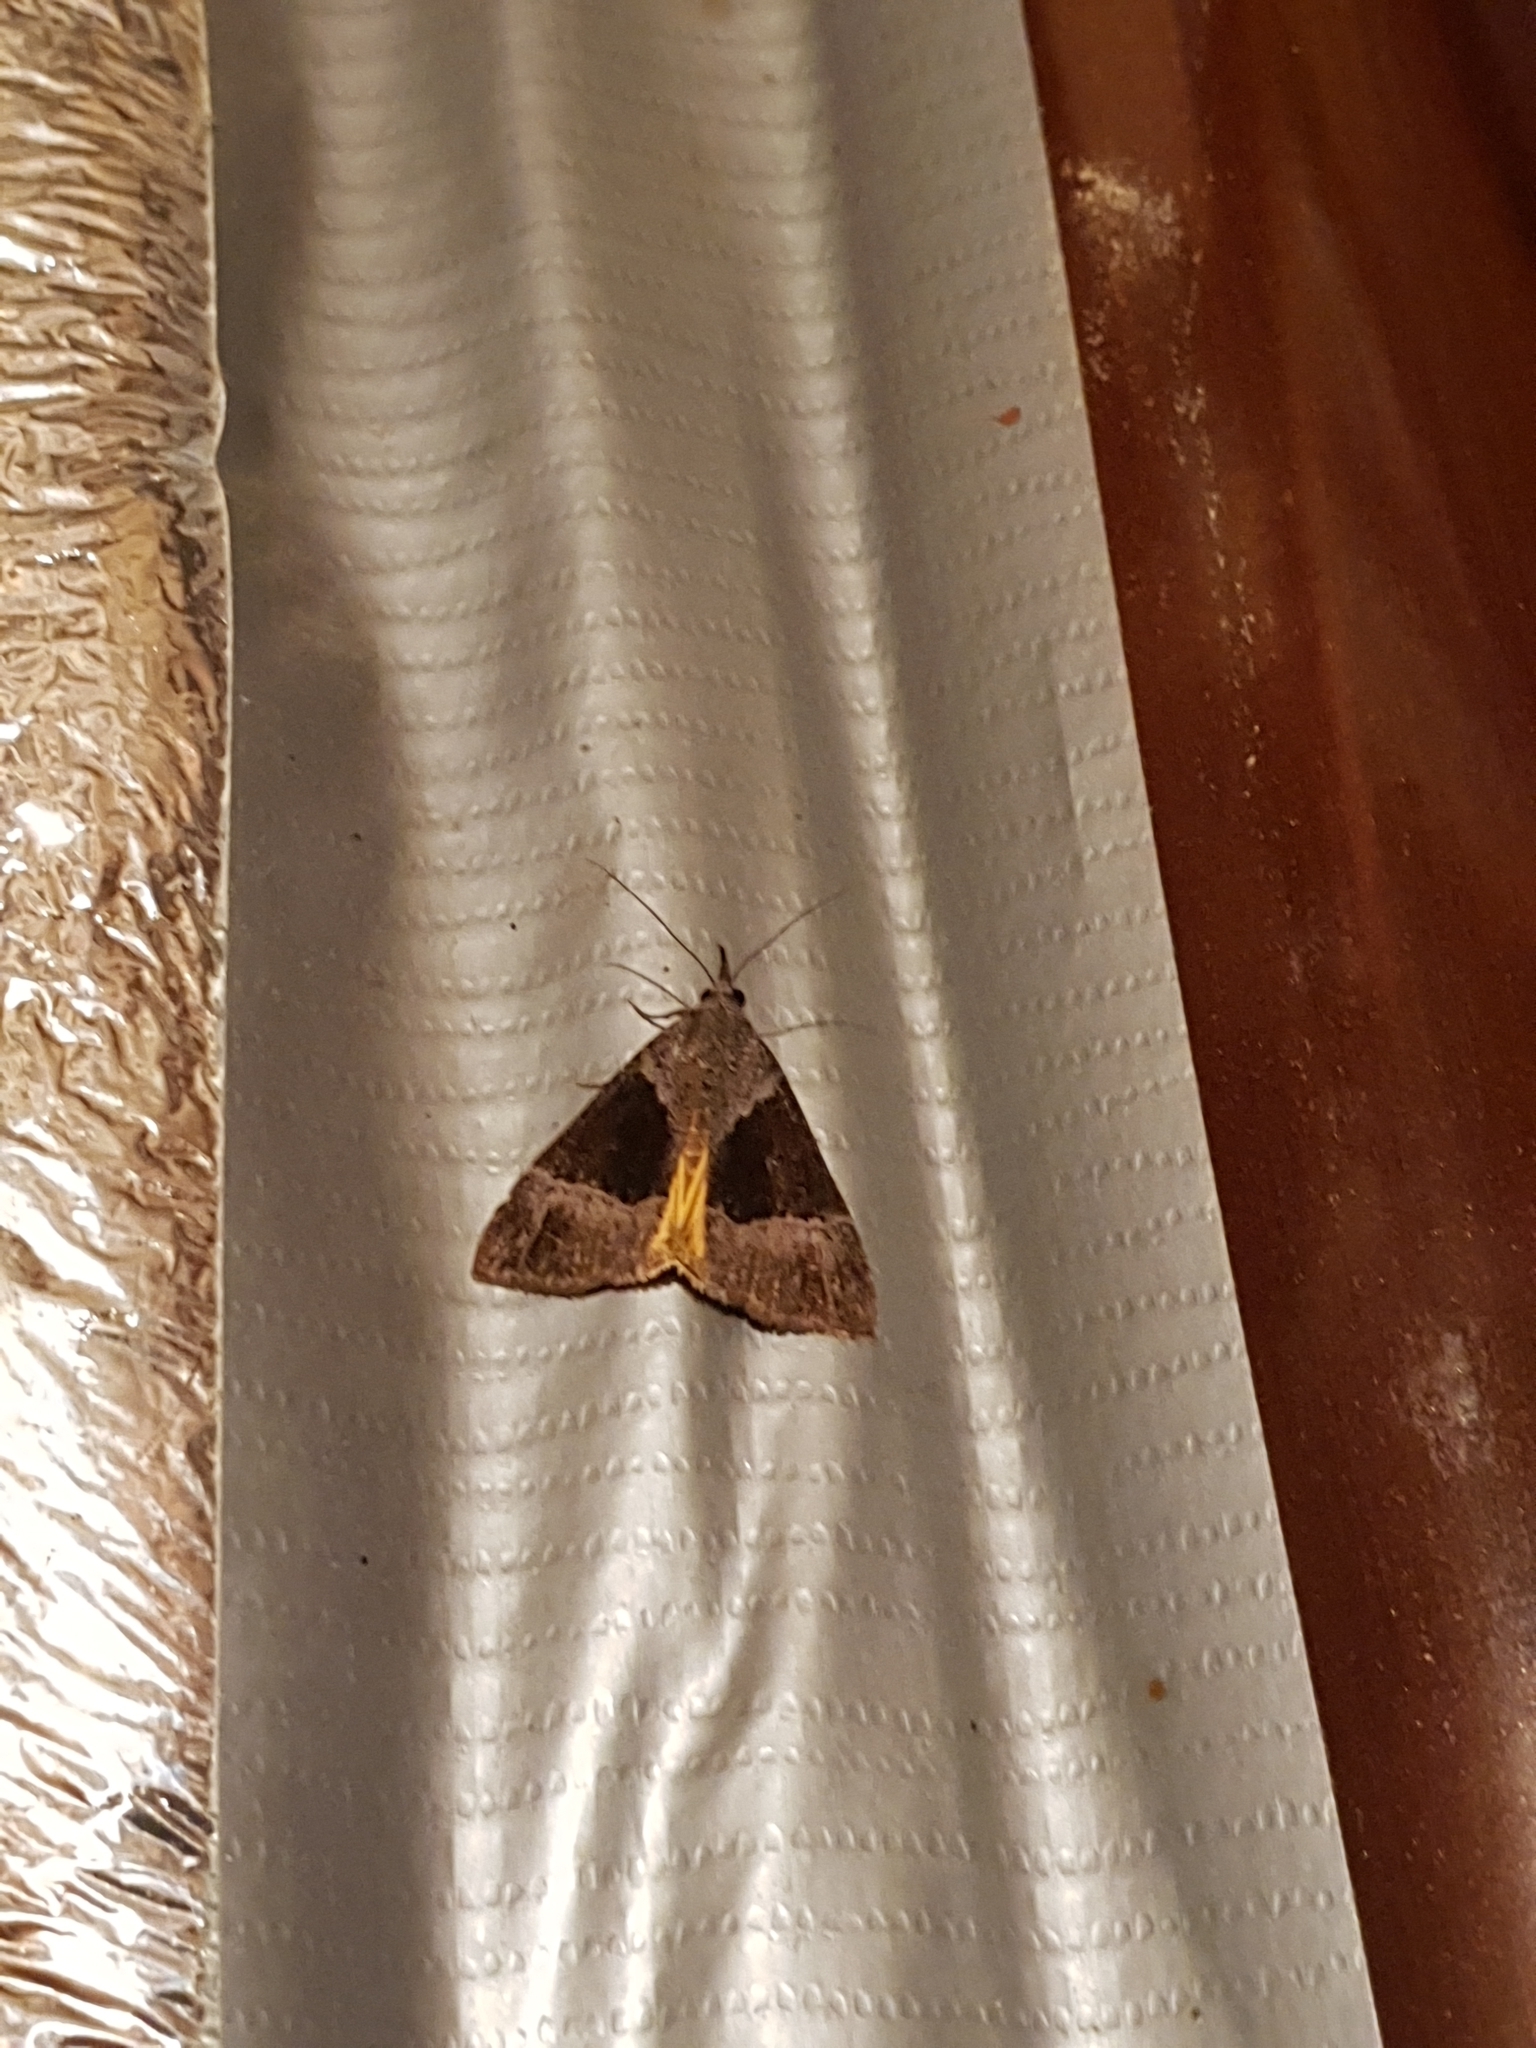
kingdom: Animalia
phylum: Arthropoda
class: Insecta
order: Lepidoptera
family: Erebidae
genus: Hypena
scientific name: Hypena opulenta
